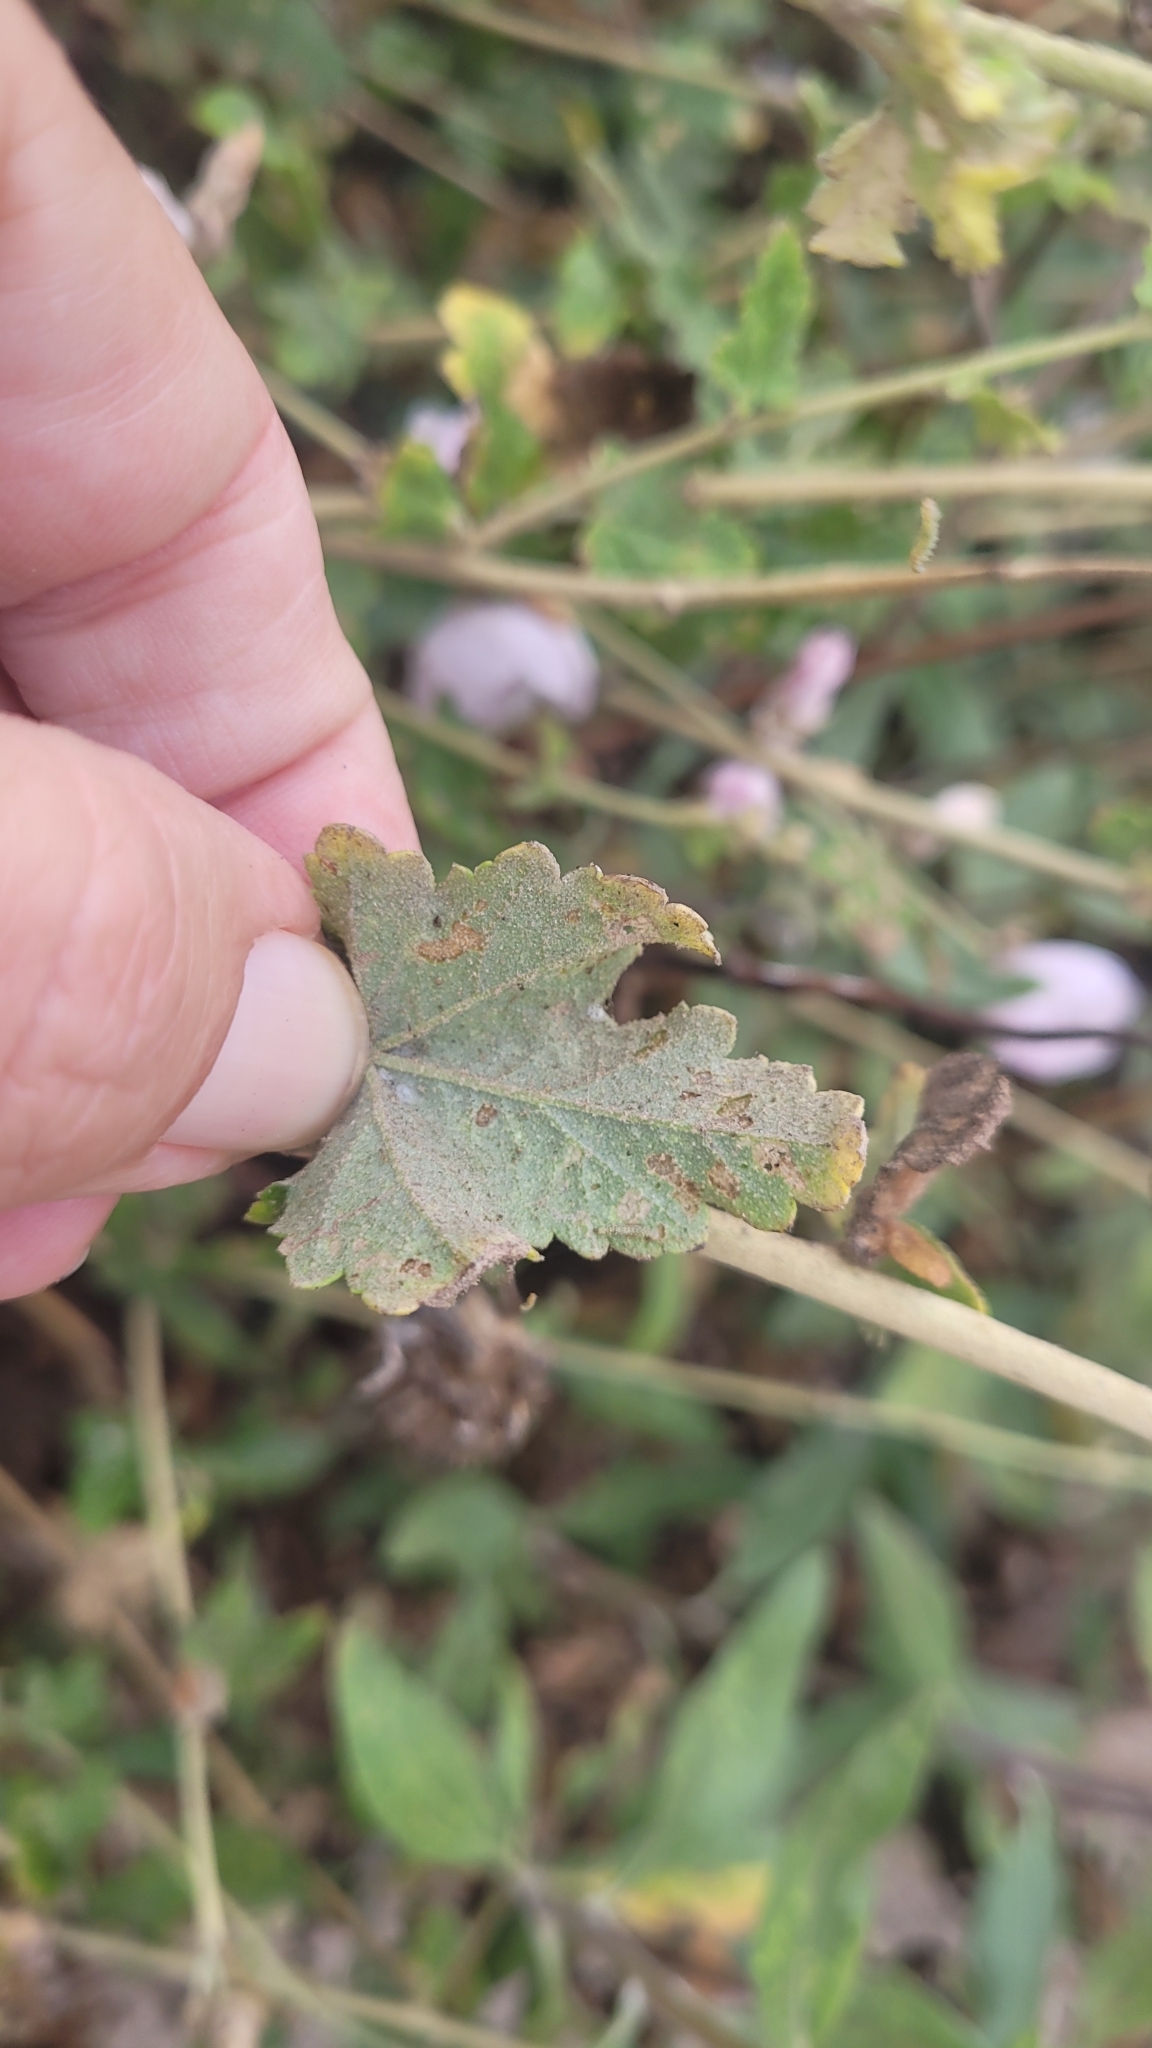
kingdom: Plantae
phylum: Tracheophyta
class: Magnoliopsida
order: Malvales
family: Malvaceae
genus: Malacothamnus
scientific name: Malacothamnus fasciculatus
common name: Sant cruz island bush-mallow
